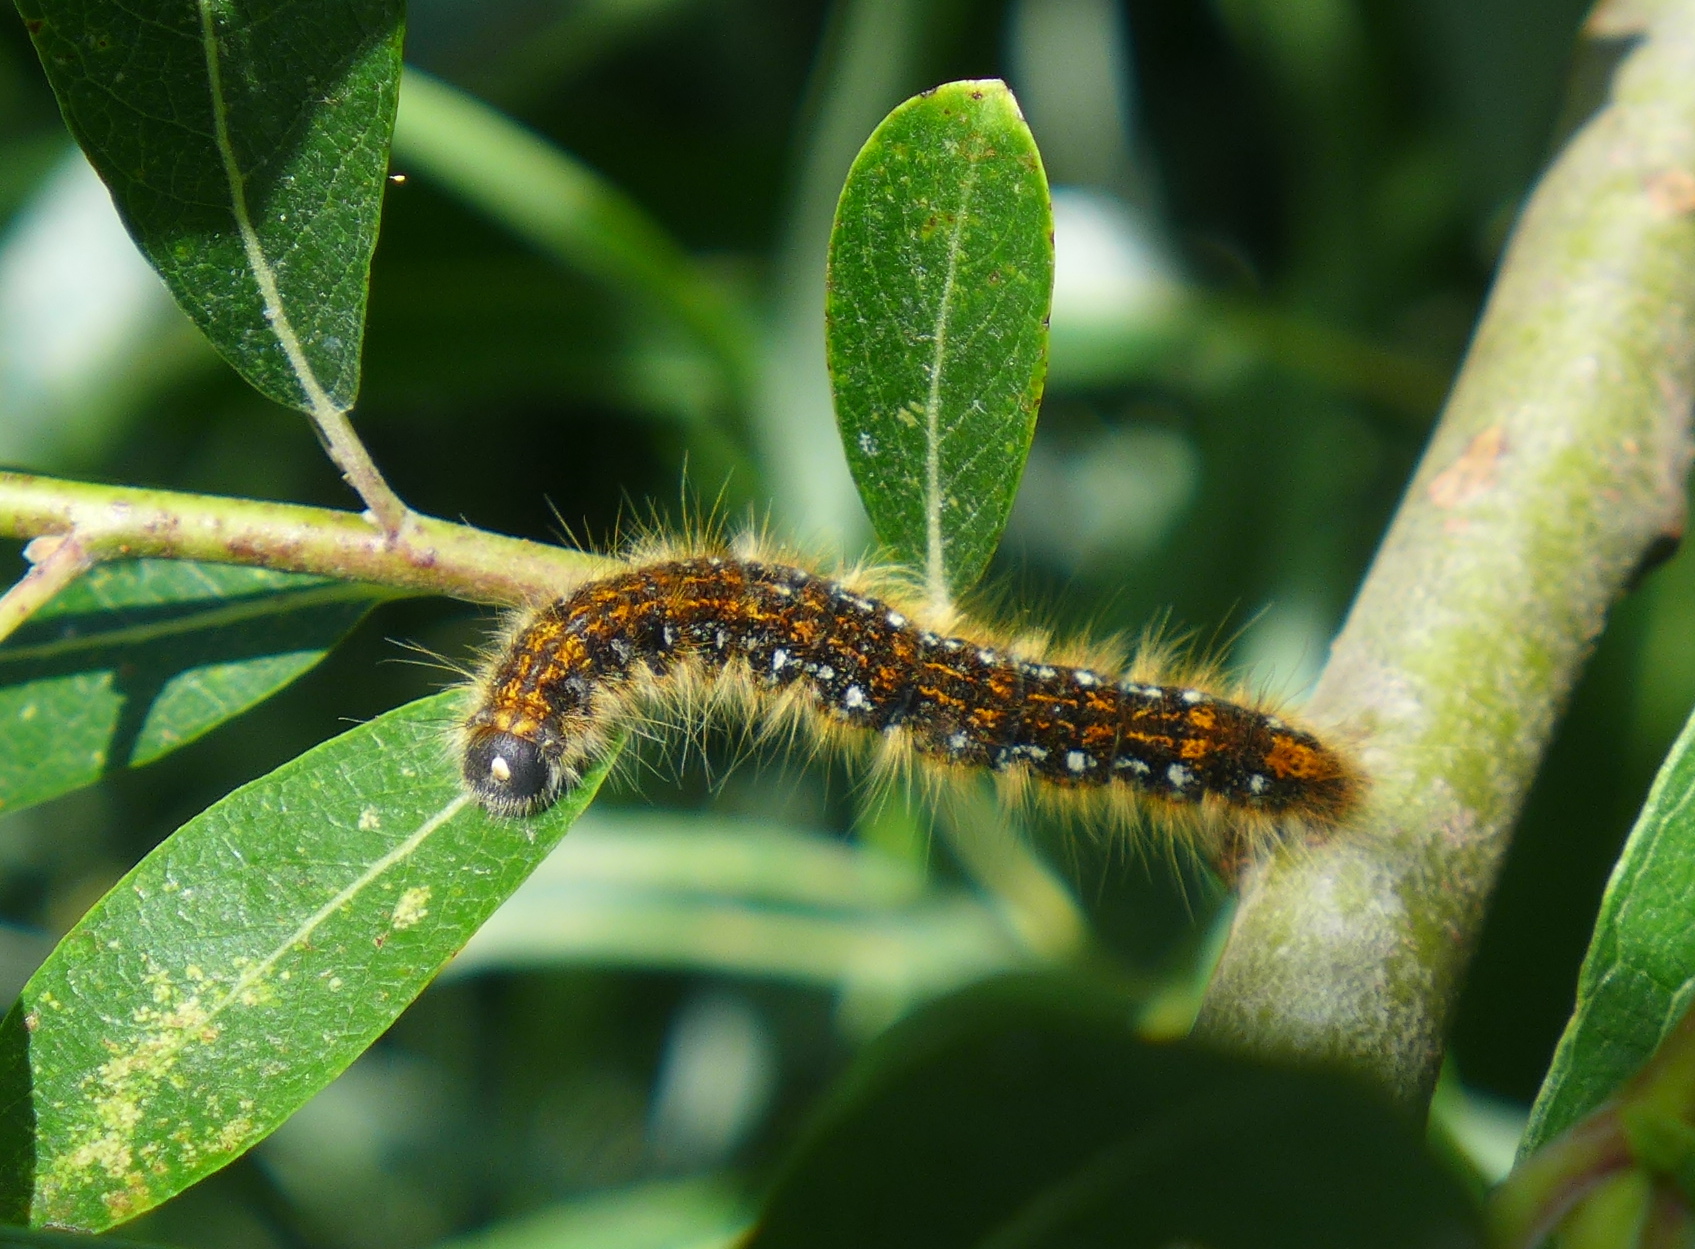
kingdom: Animalia
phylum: Arthropoda
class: Insecta
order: Lepidoptera
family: Lasiocampidae
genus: Malacosoma
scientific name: Malacosoma californica
